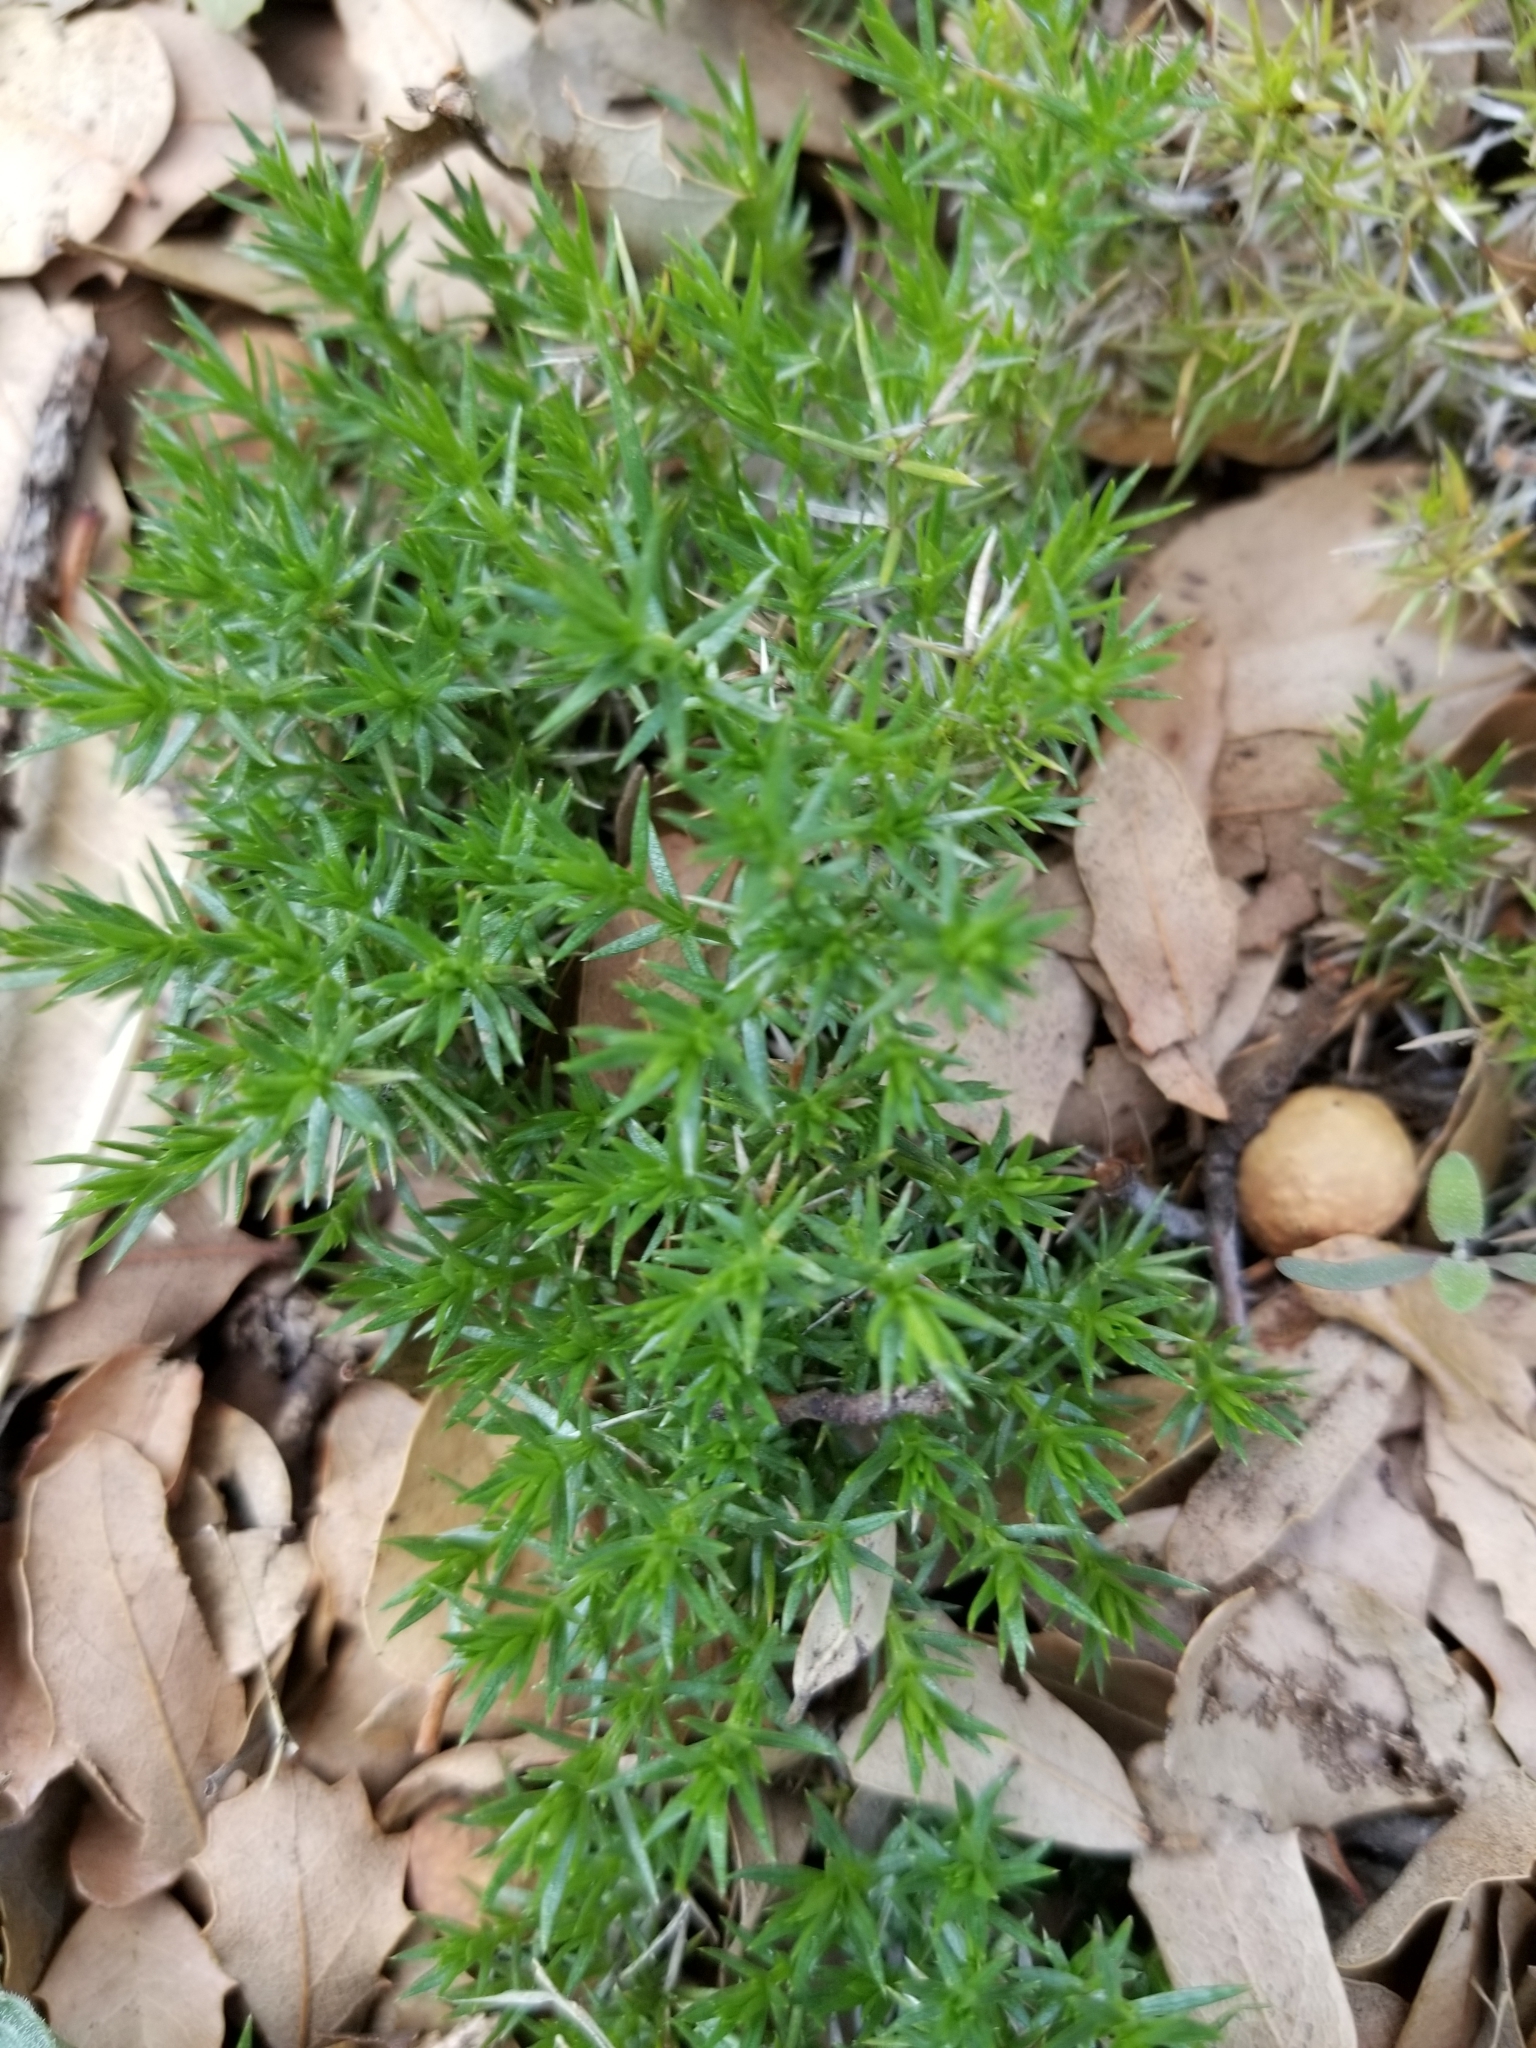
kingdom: Plantae
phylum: Tracheophyta
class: Magnoliopsida
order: Gentianales
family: Rubiaceae
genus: Galium
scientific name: Galium andrewsii
